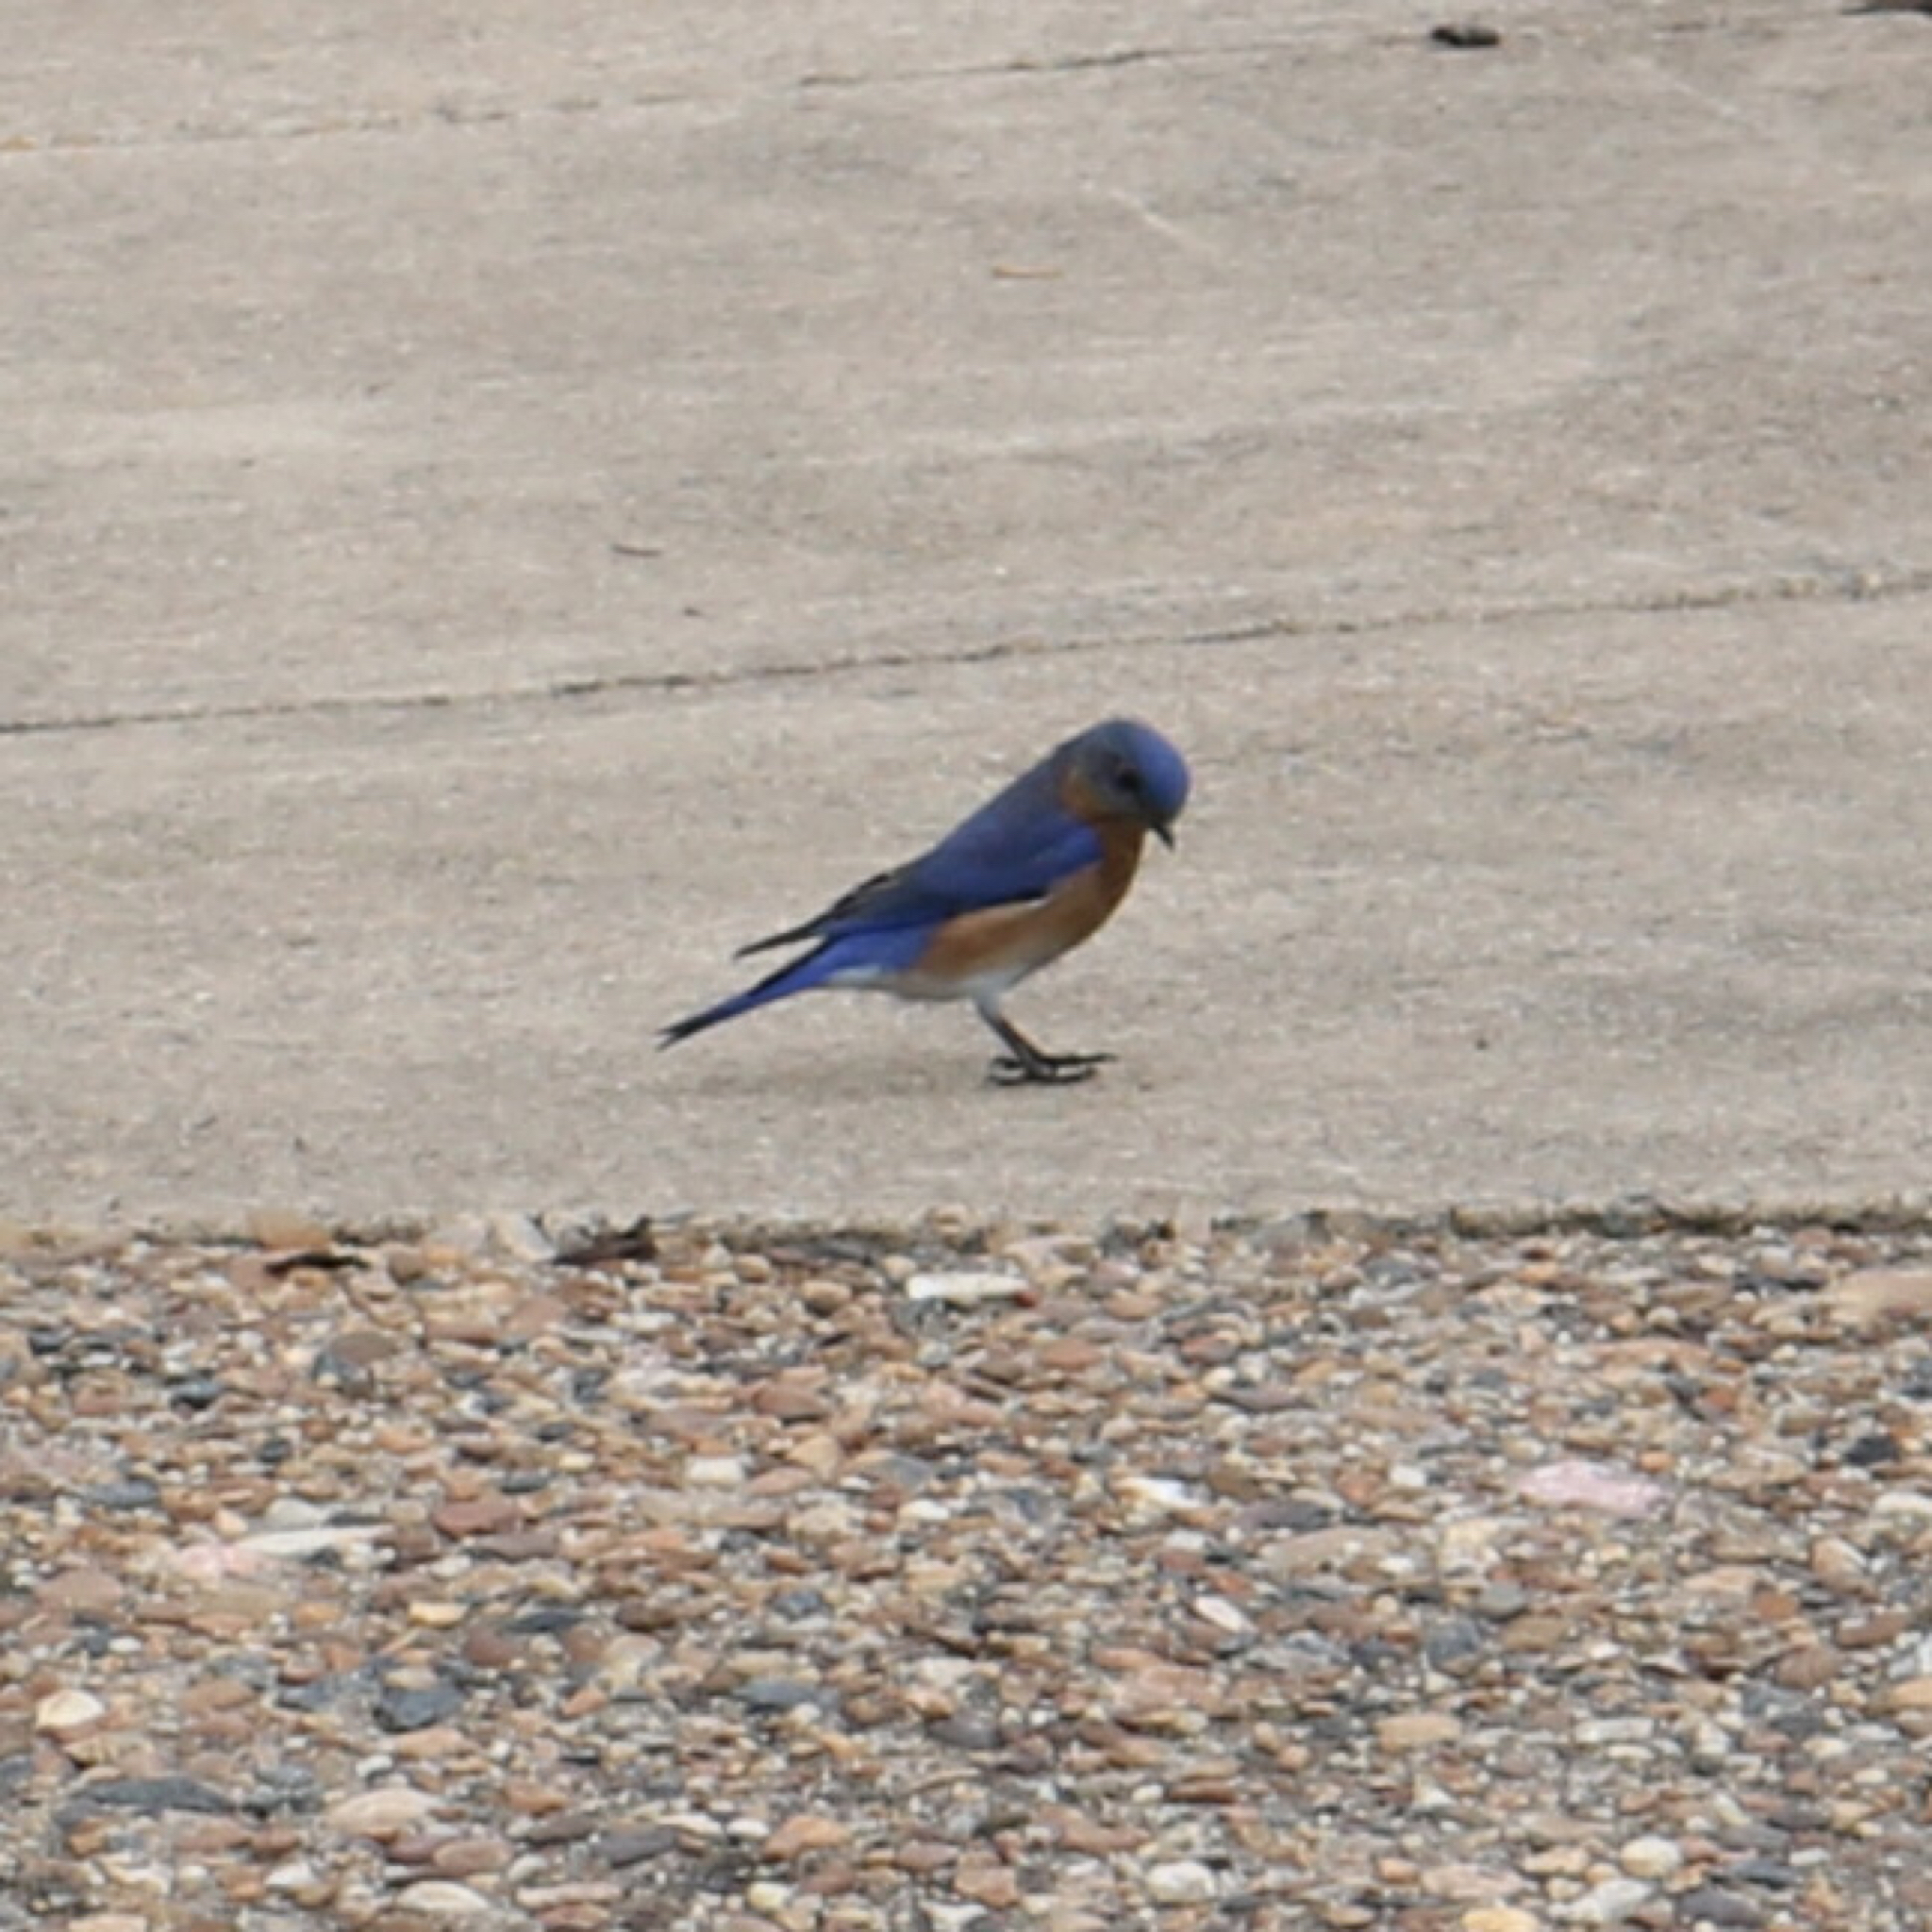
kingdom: Animalia
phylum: Chordata
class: Aves
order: Passeriformes
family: Turdidae
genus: Sialia
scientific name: Sialia sialis
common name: Eastern bluebird
